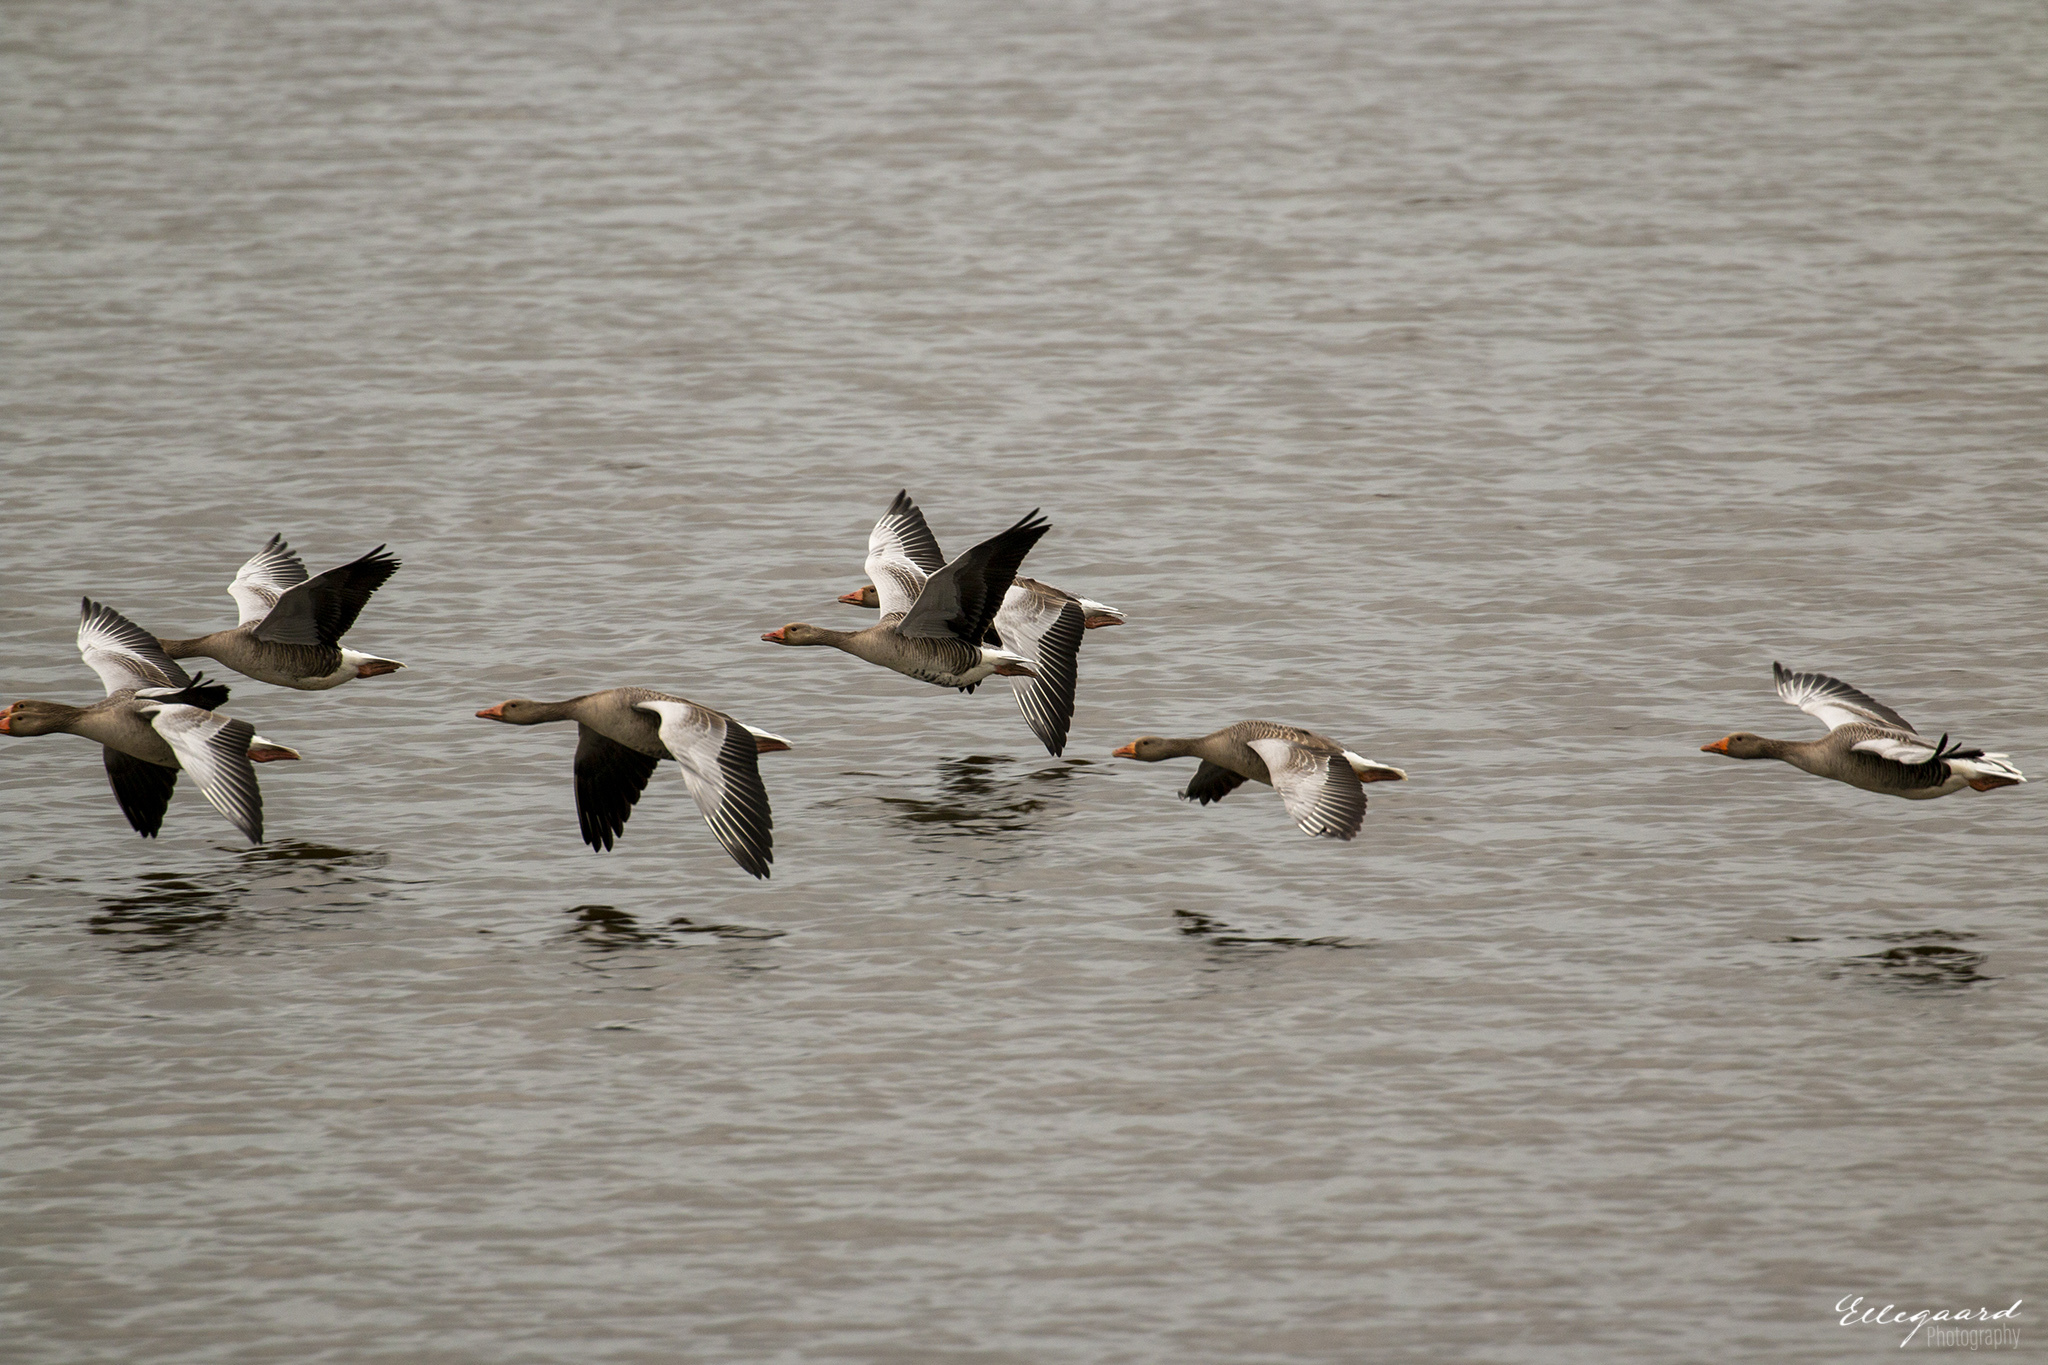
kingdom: Animalia
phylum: Chordata
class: Aves
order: Anseriformes
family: Anatidae
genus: Anser
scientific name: Anser anser
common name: Greylag goose
